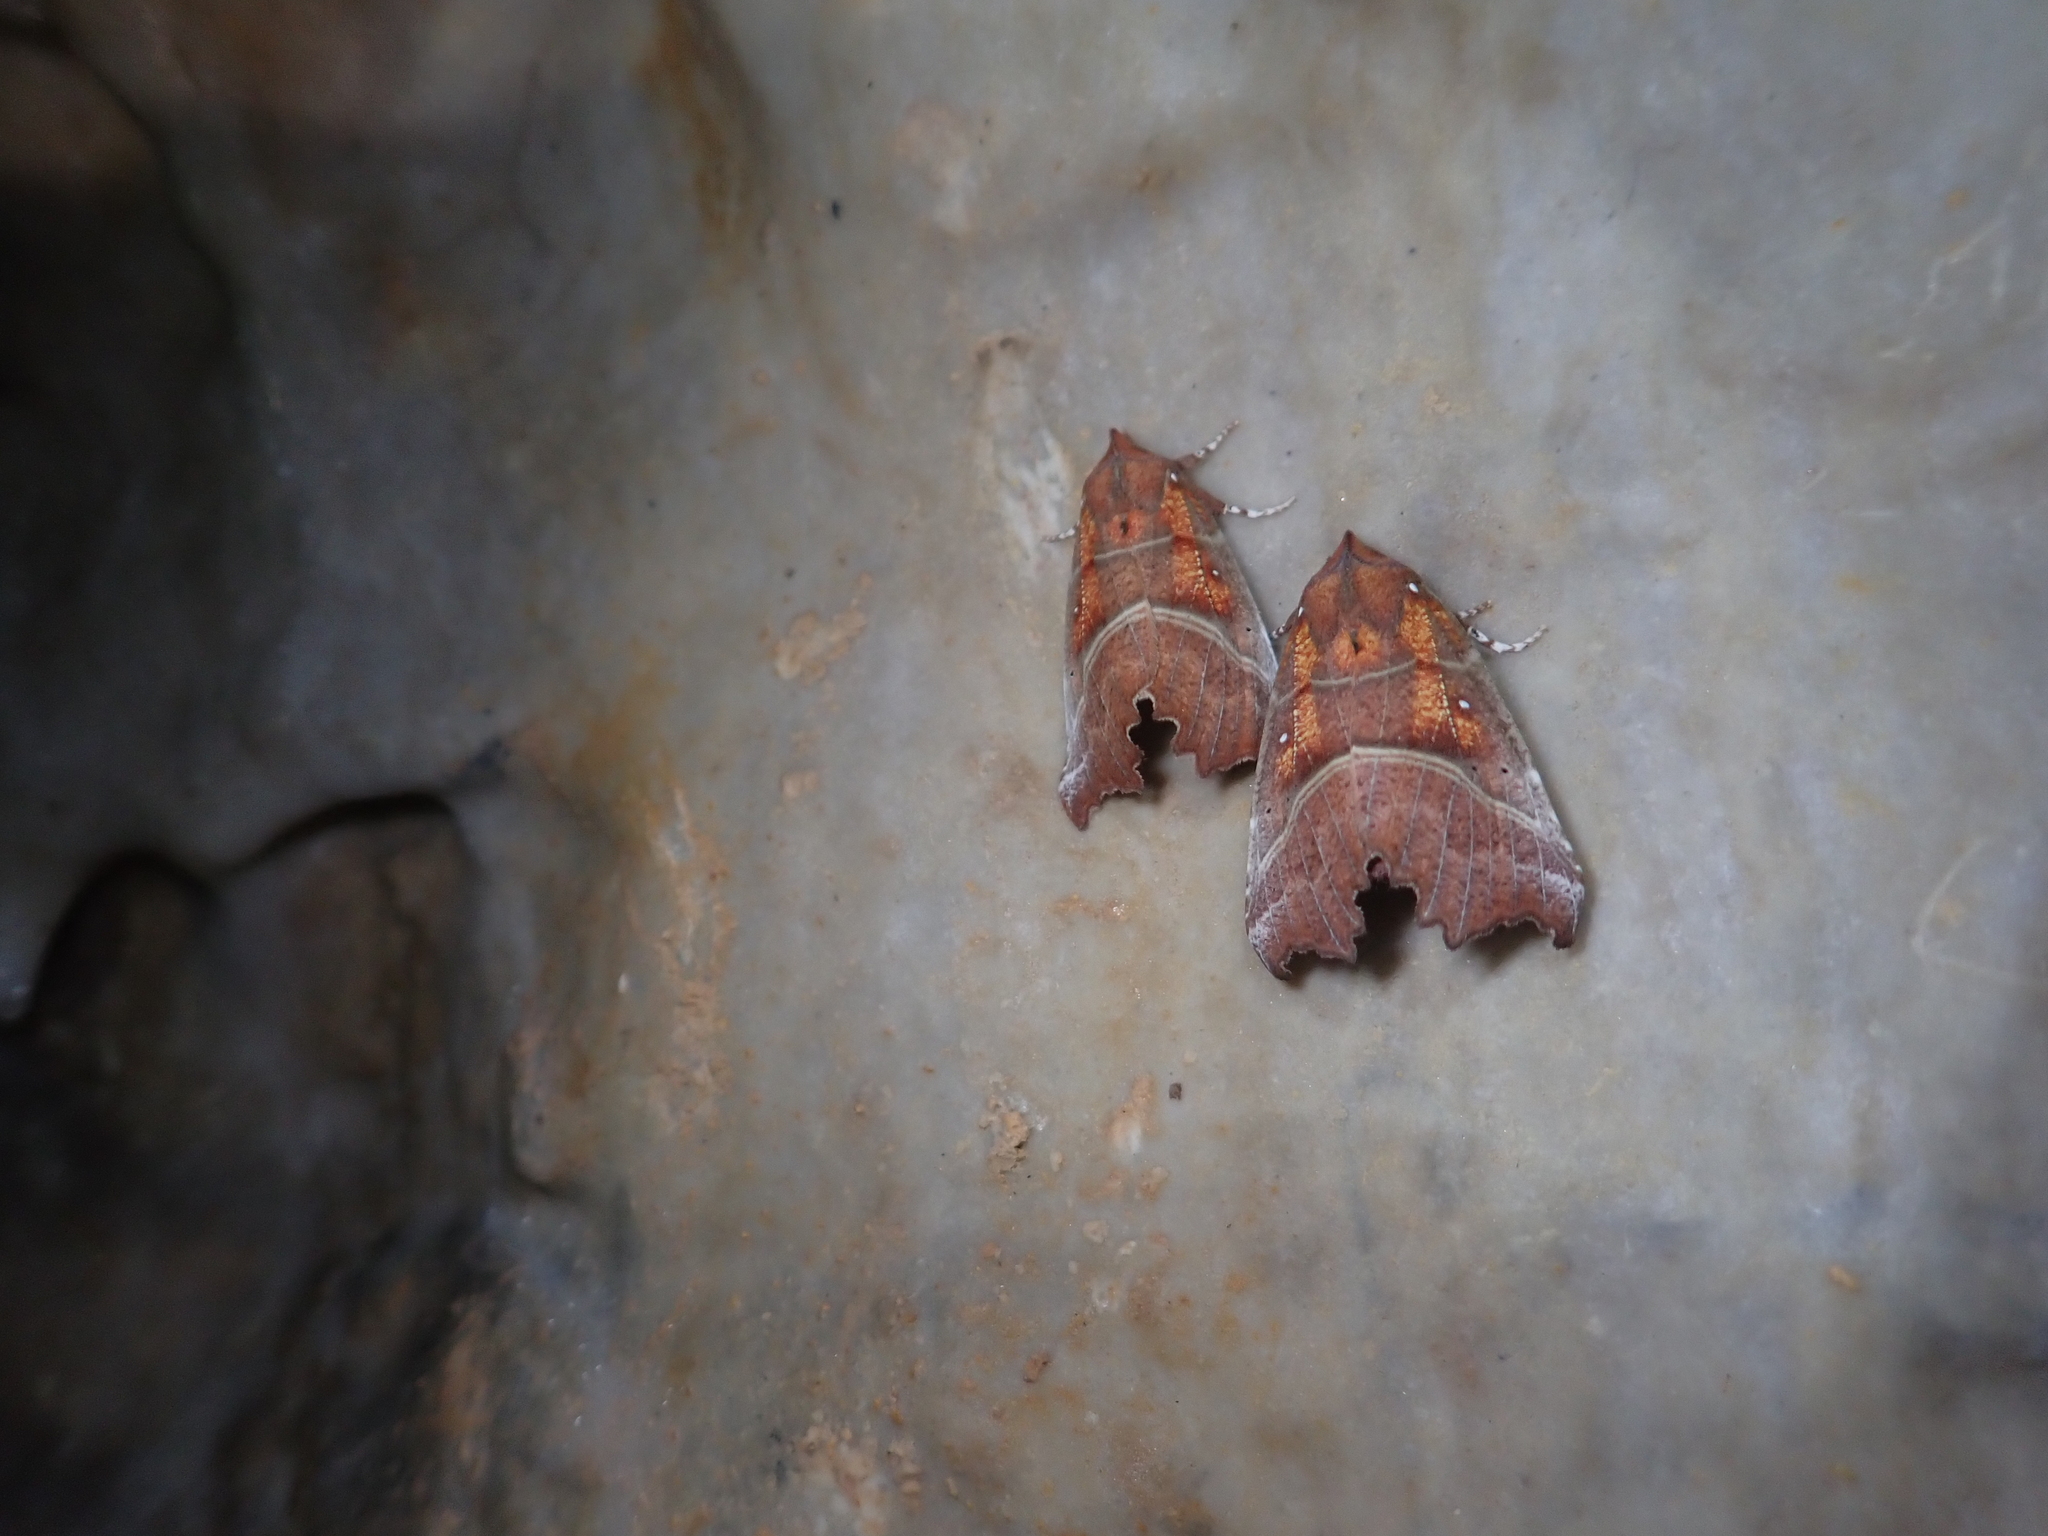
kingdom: Animalia
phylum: Arthropoda
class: Insecta
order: Lepidoptera
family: Erebidae
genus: Scoliopteryx
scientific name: Scoliopteryx libatrix
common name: Herald
